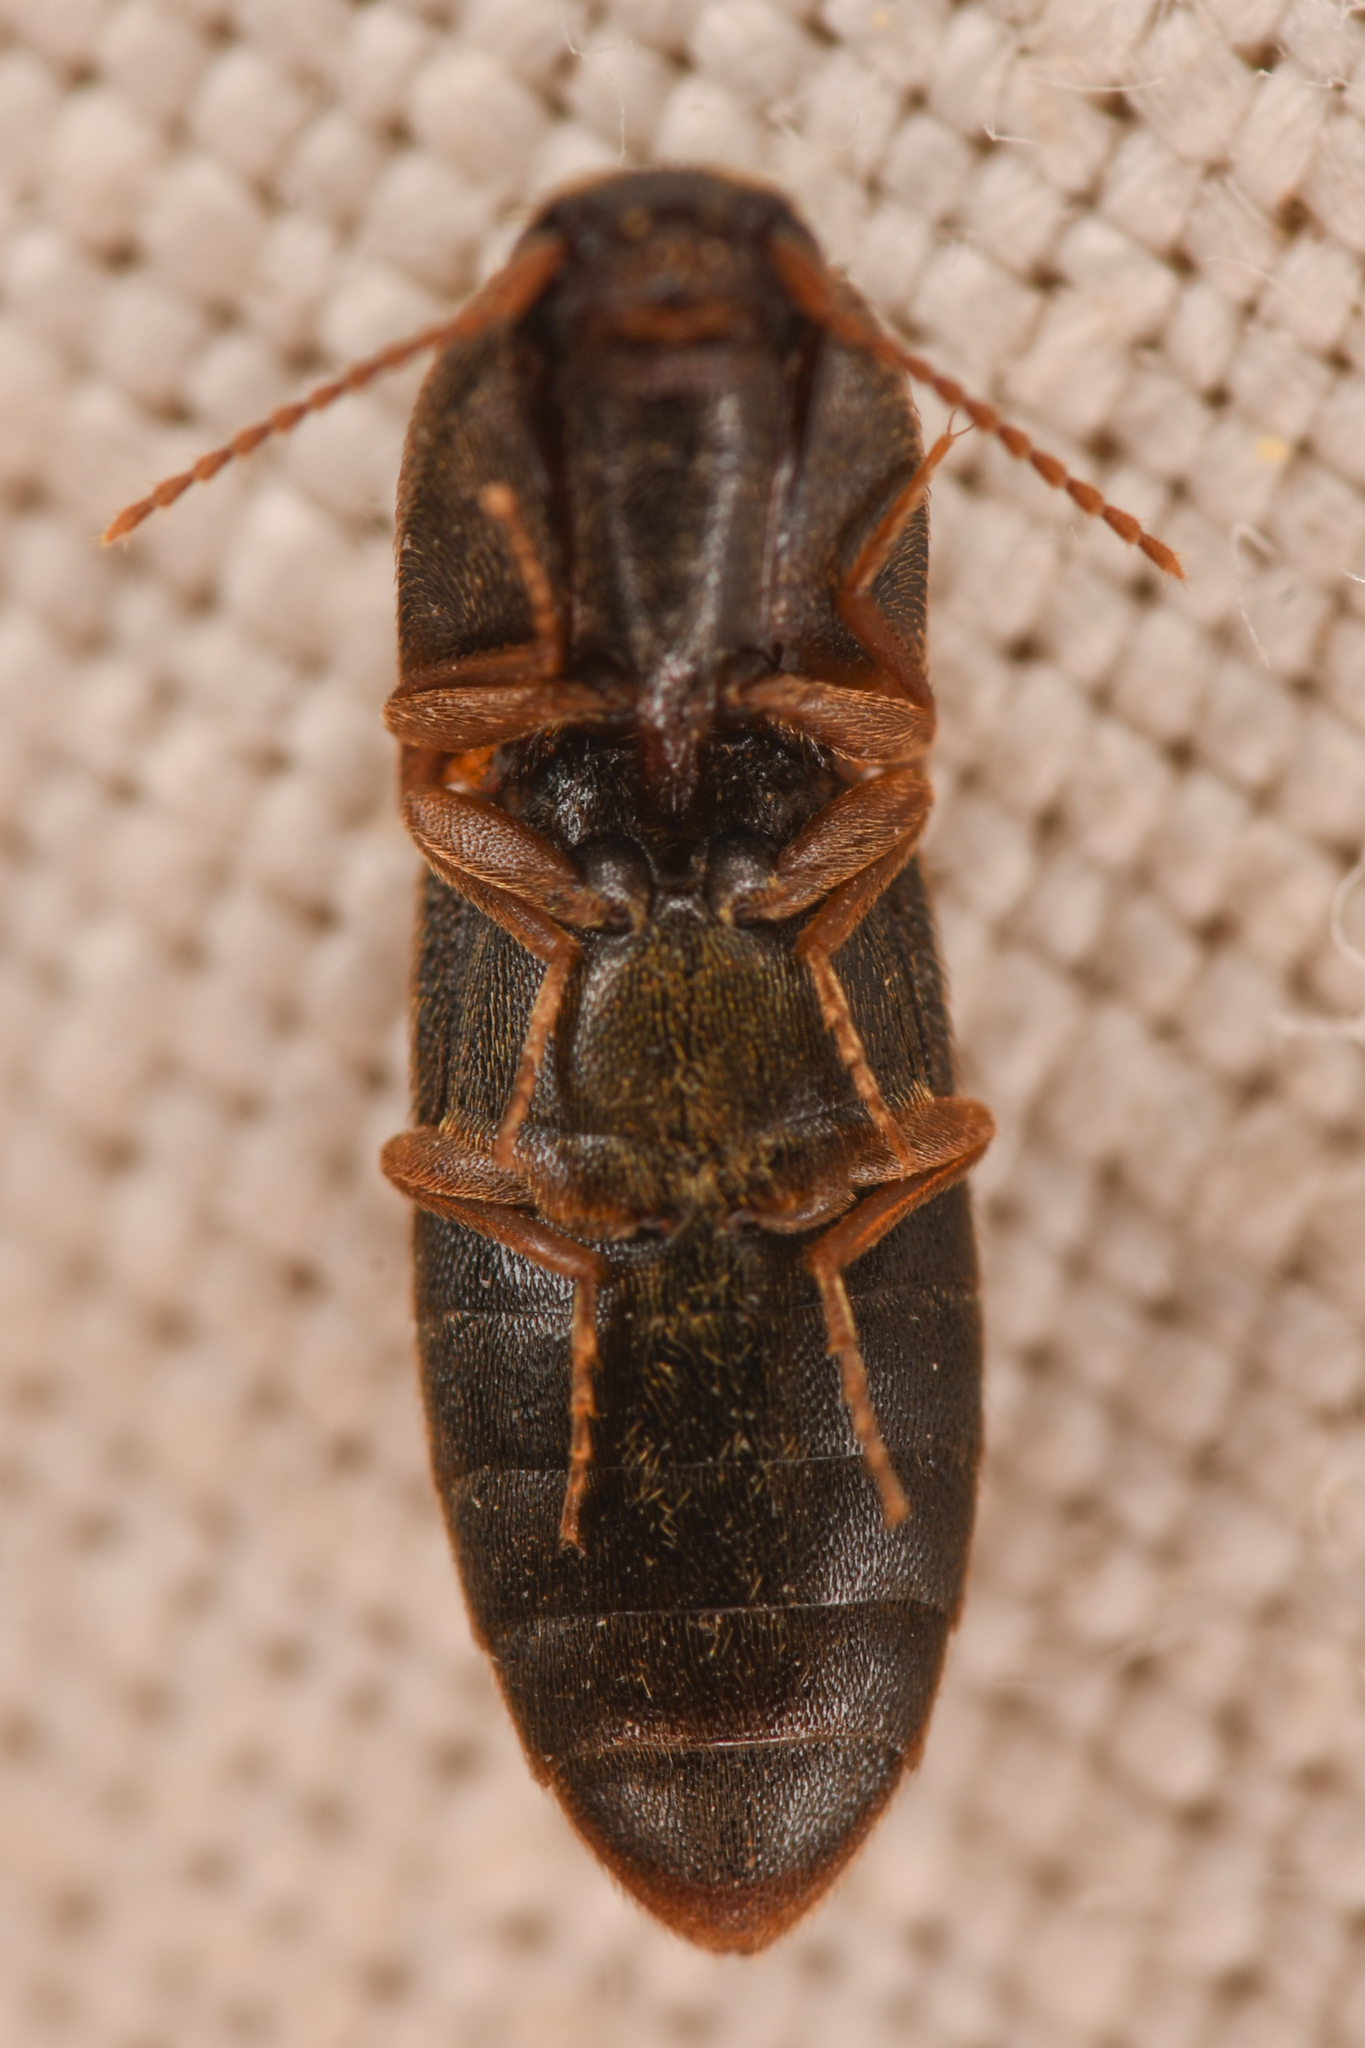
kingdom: Animalia
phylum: Arthropoda
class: Insecta
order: Coleoptera
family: Elateridae
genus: Agriotes
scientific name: Agriotes opaculus
